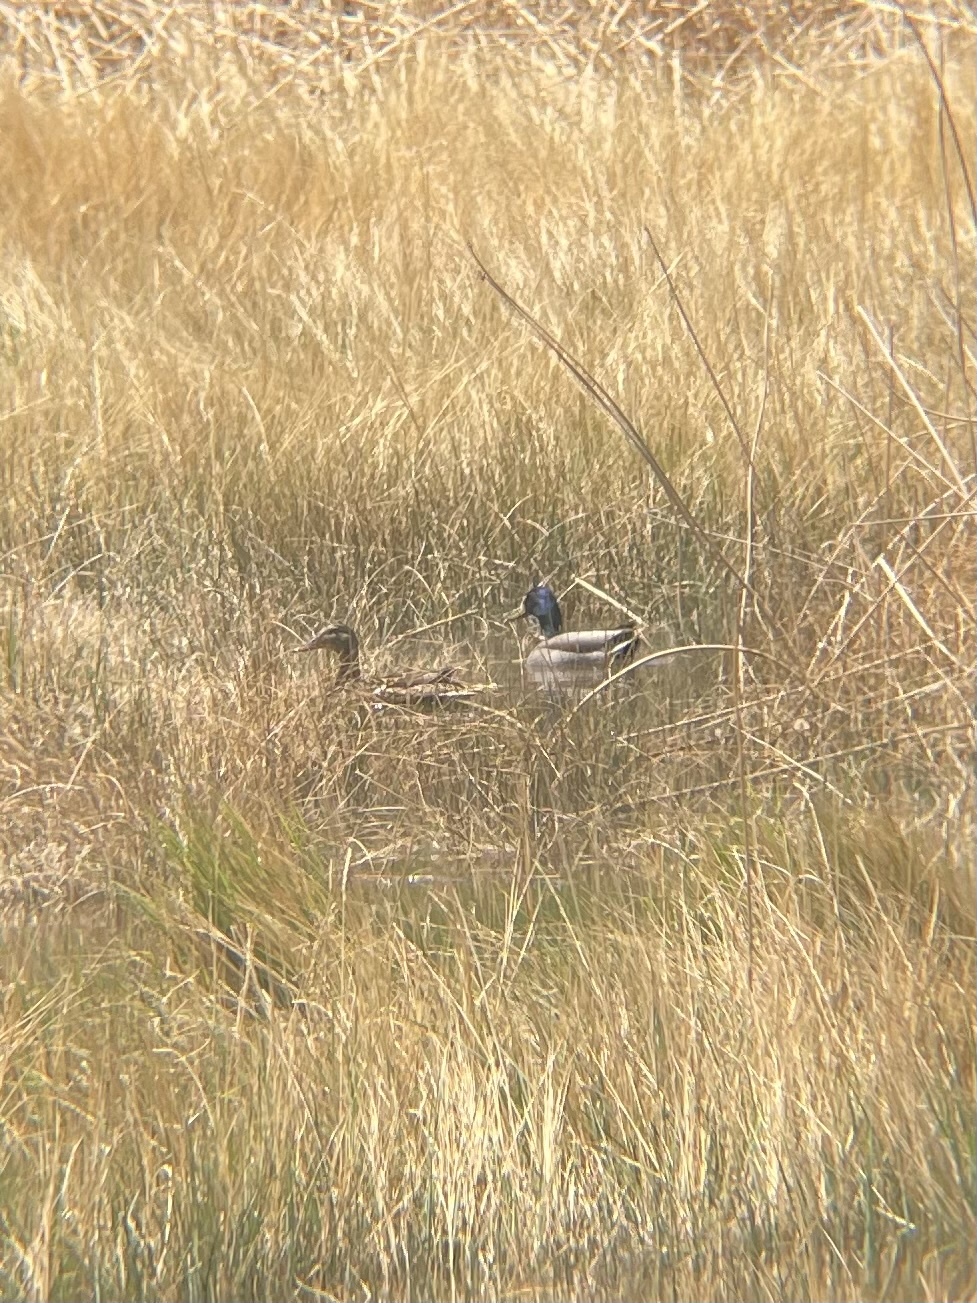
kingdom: Animalia
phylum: Chordata
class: Aves
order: Anseriformes
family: Anatidae
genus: Anas
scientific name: Anas platyrhynchos
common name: Mallard
